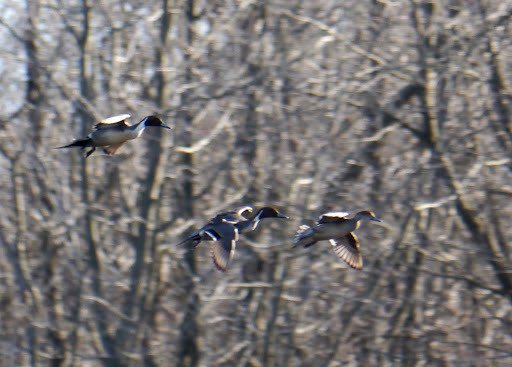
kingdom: Animalia
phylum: Chordata
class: Aves
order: Anseriformes
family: Anatidae
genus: Anas
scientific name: Anas acuta
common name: Northern pintail
